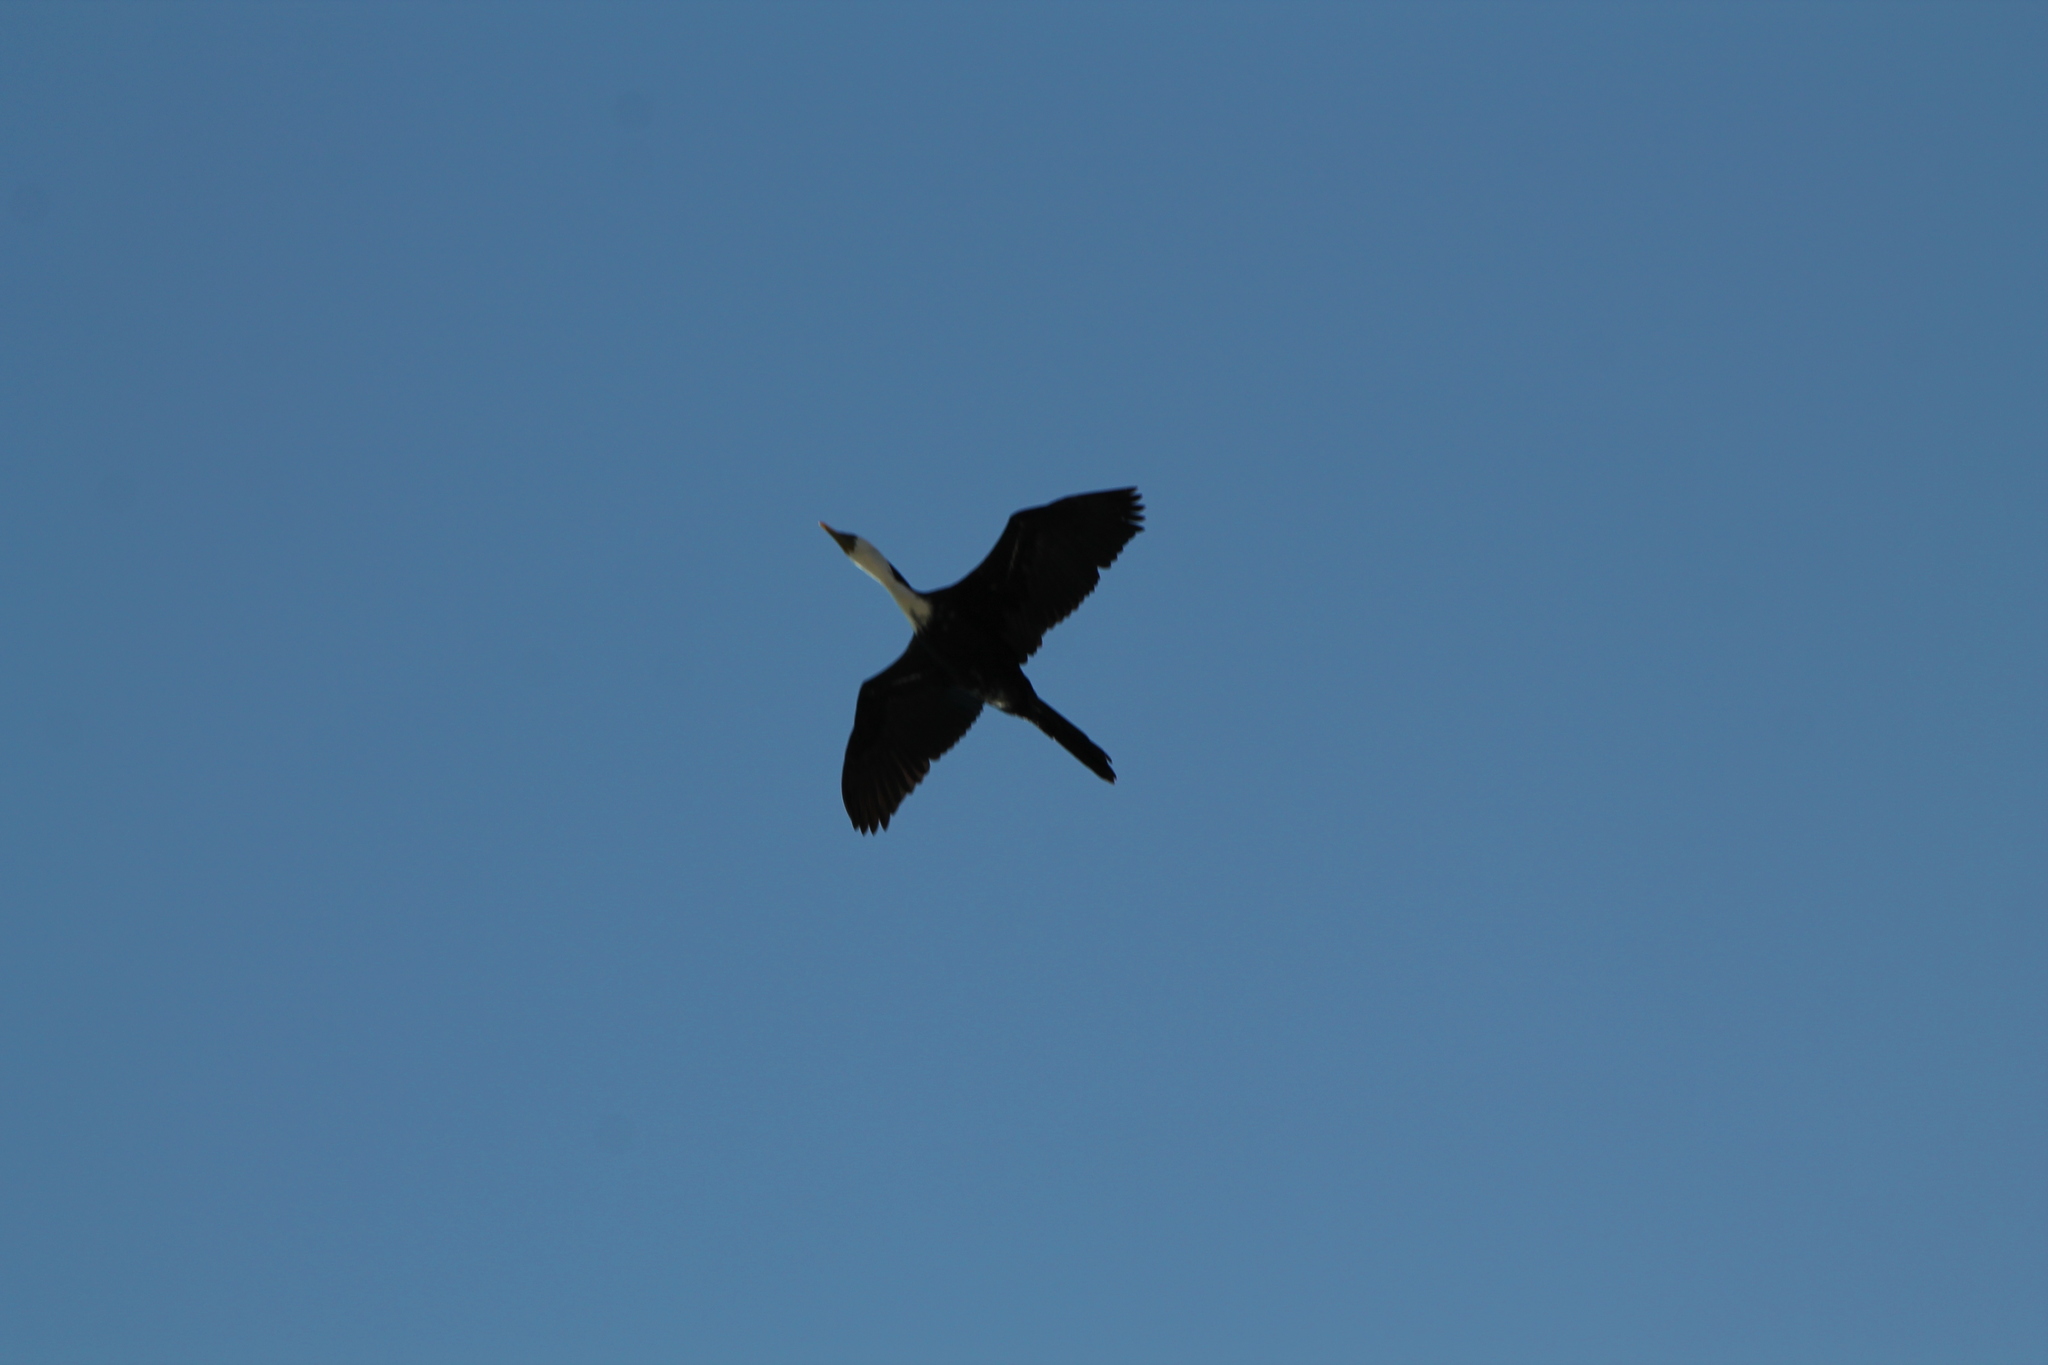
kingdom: Animalia
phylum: Chordata
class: Aves
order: Suliformes
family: Phalacrocoracidae
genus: Microcarbo
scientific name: Microcarbo melanoleucos
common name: Little pied cormorant
